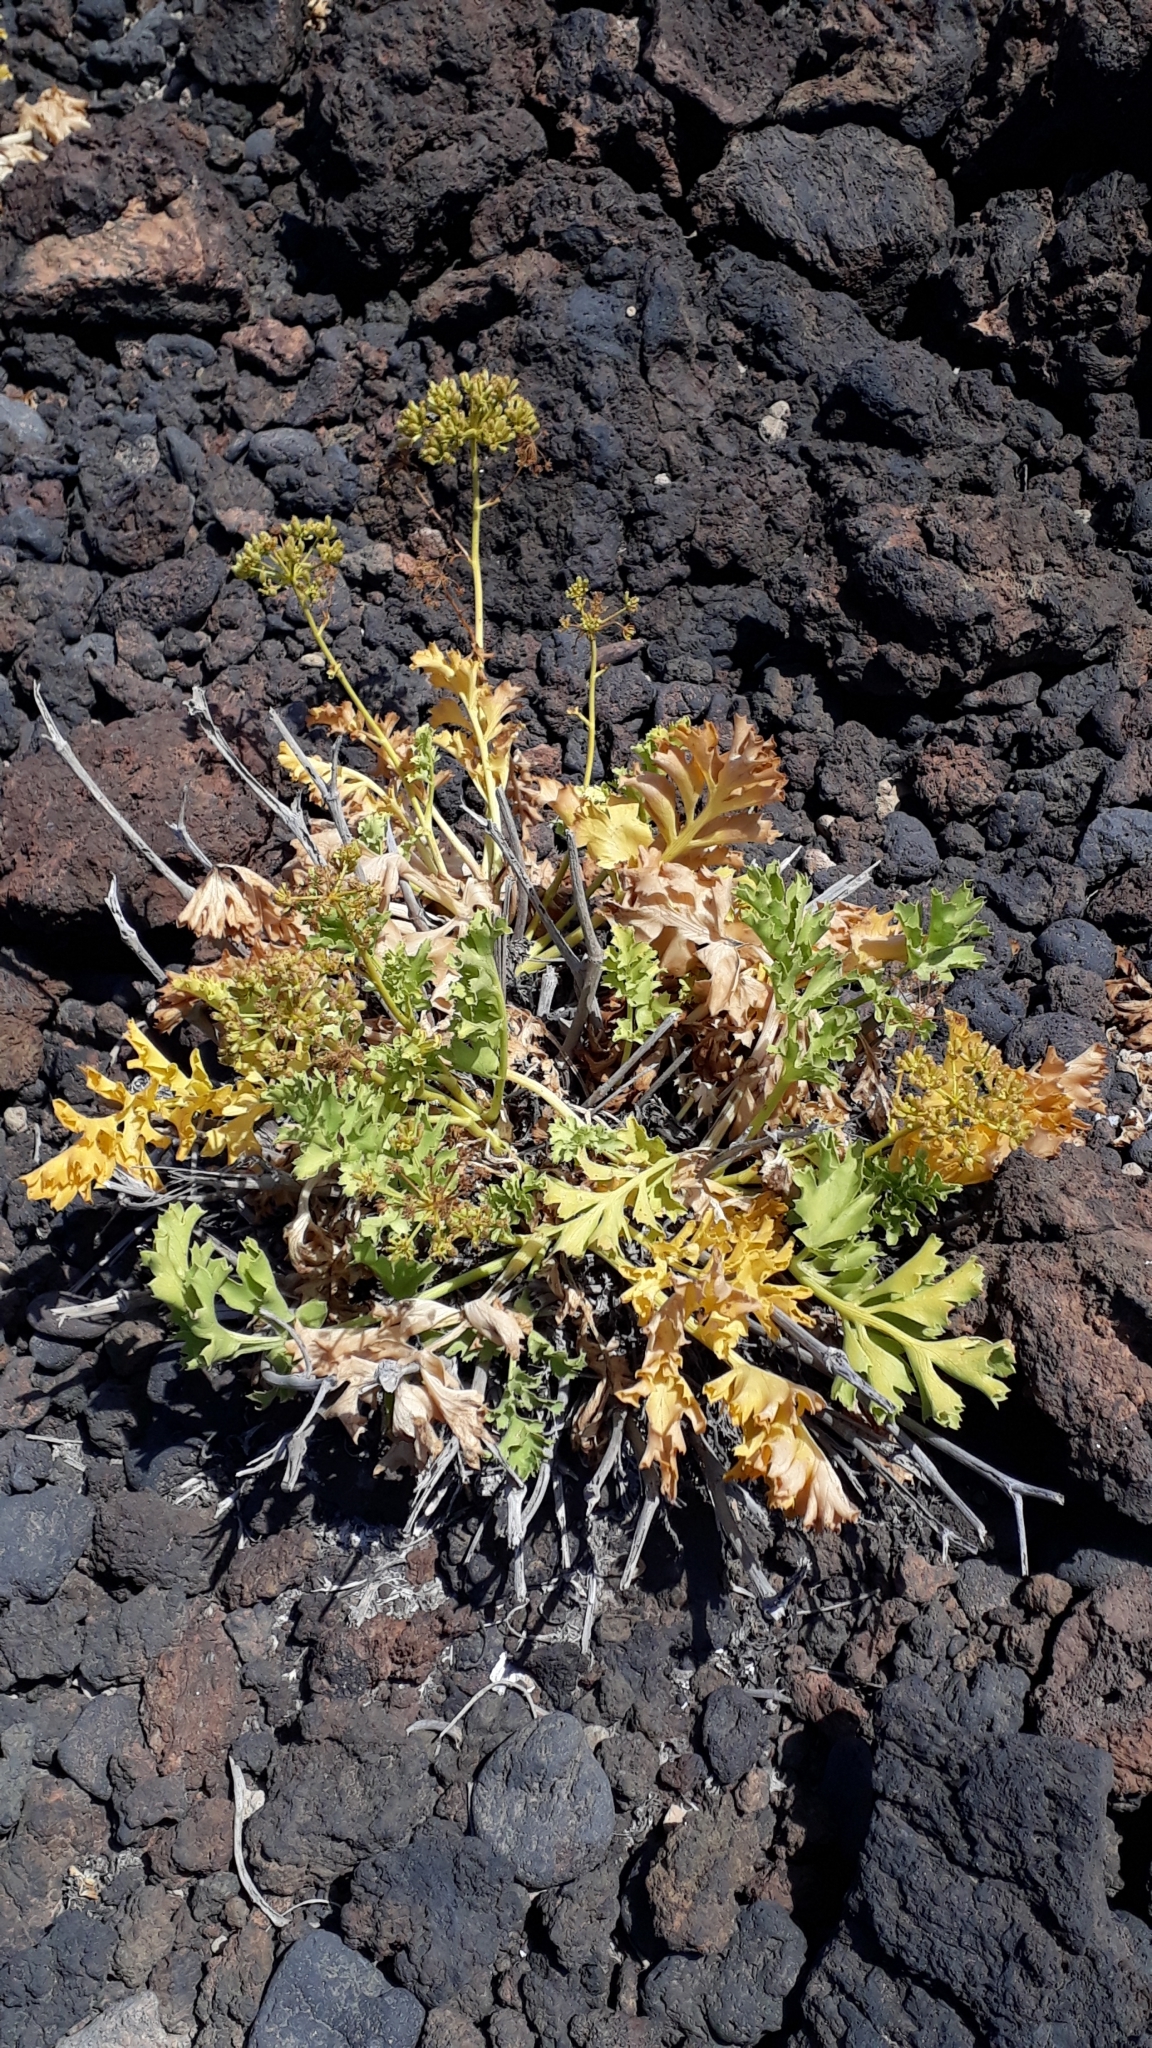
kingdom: Plantae
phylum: Tracheophyta
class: Magnoliopsida
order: Apiales
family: Apiaceae
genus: Astydamia
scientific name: Astydamia latifolia
